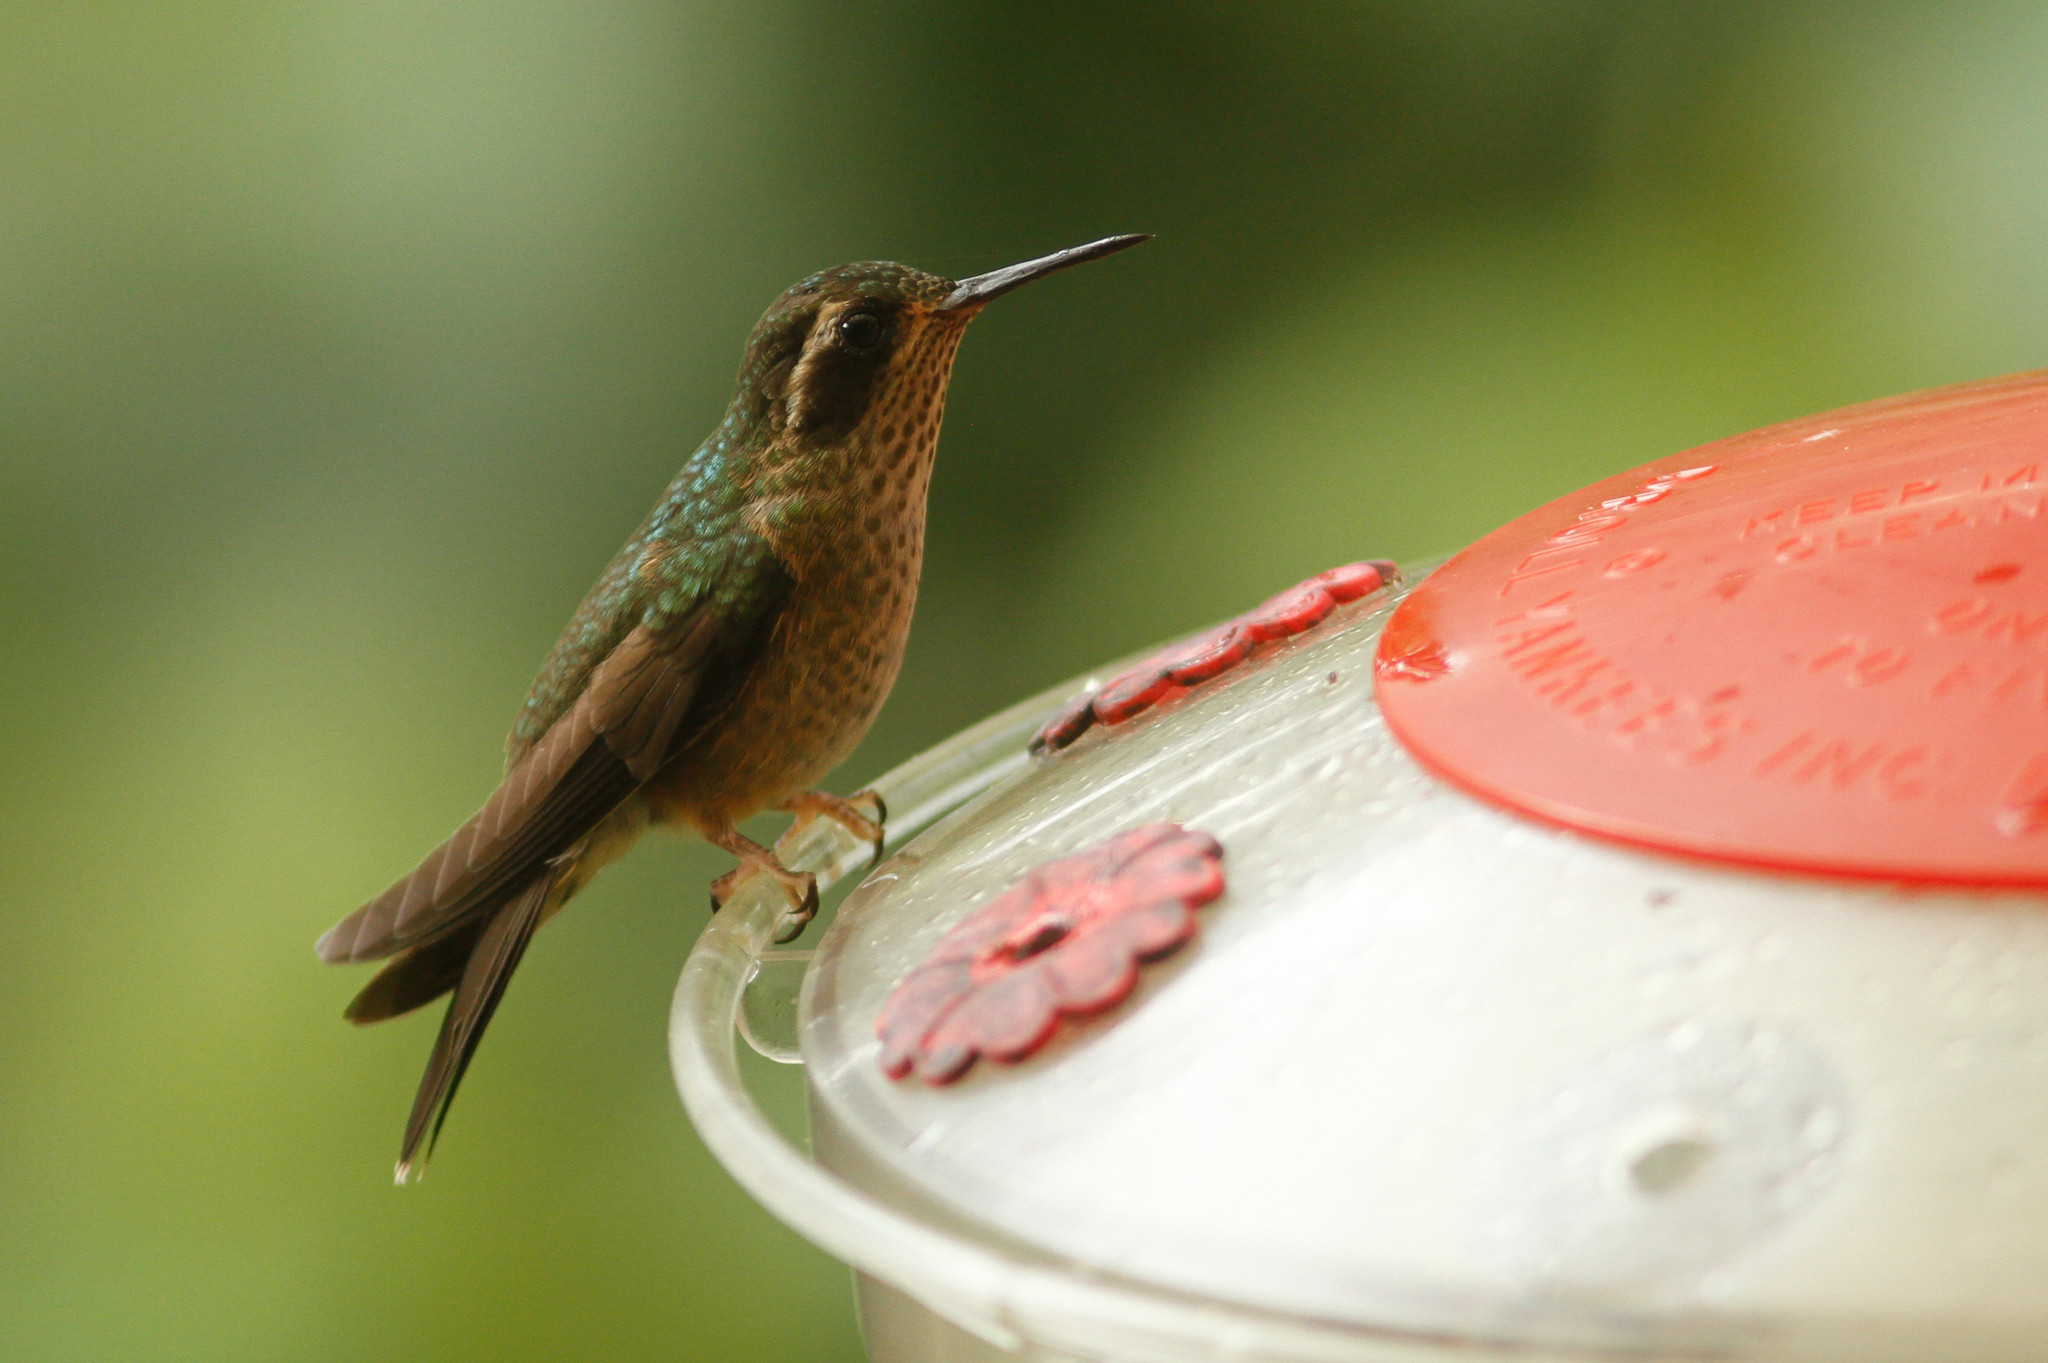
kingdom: Animalia
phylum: Chordata
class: Aves
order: Apodiformes
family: Trochilidae
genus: Adelomyia
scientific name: Adelomyia melanogenys
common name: Speckled hummingbird
